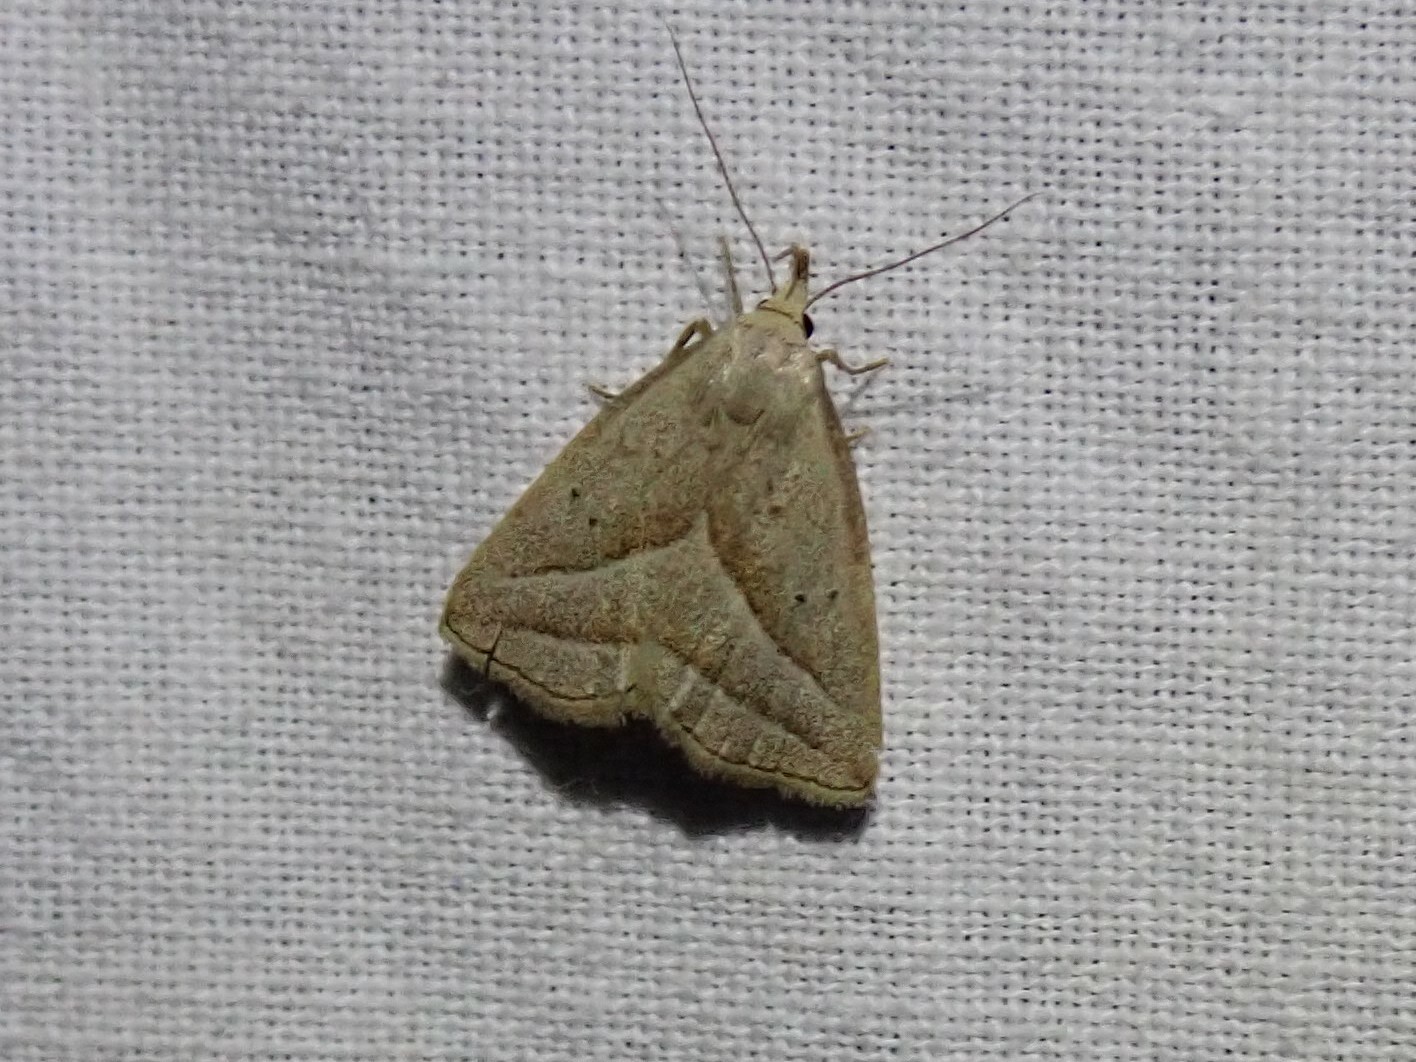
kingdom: Animalia
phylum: Arthropoda
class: Insecta
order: Lepidoptera
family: Erebidae
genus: Macrochilo
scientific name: Macrochilo absorptalis
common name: Slant-lined owlet
